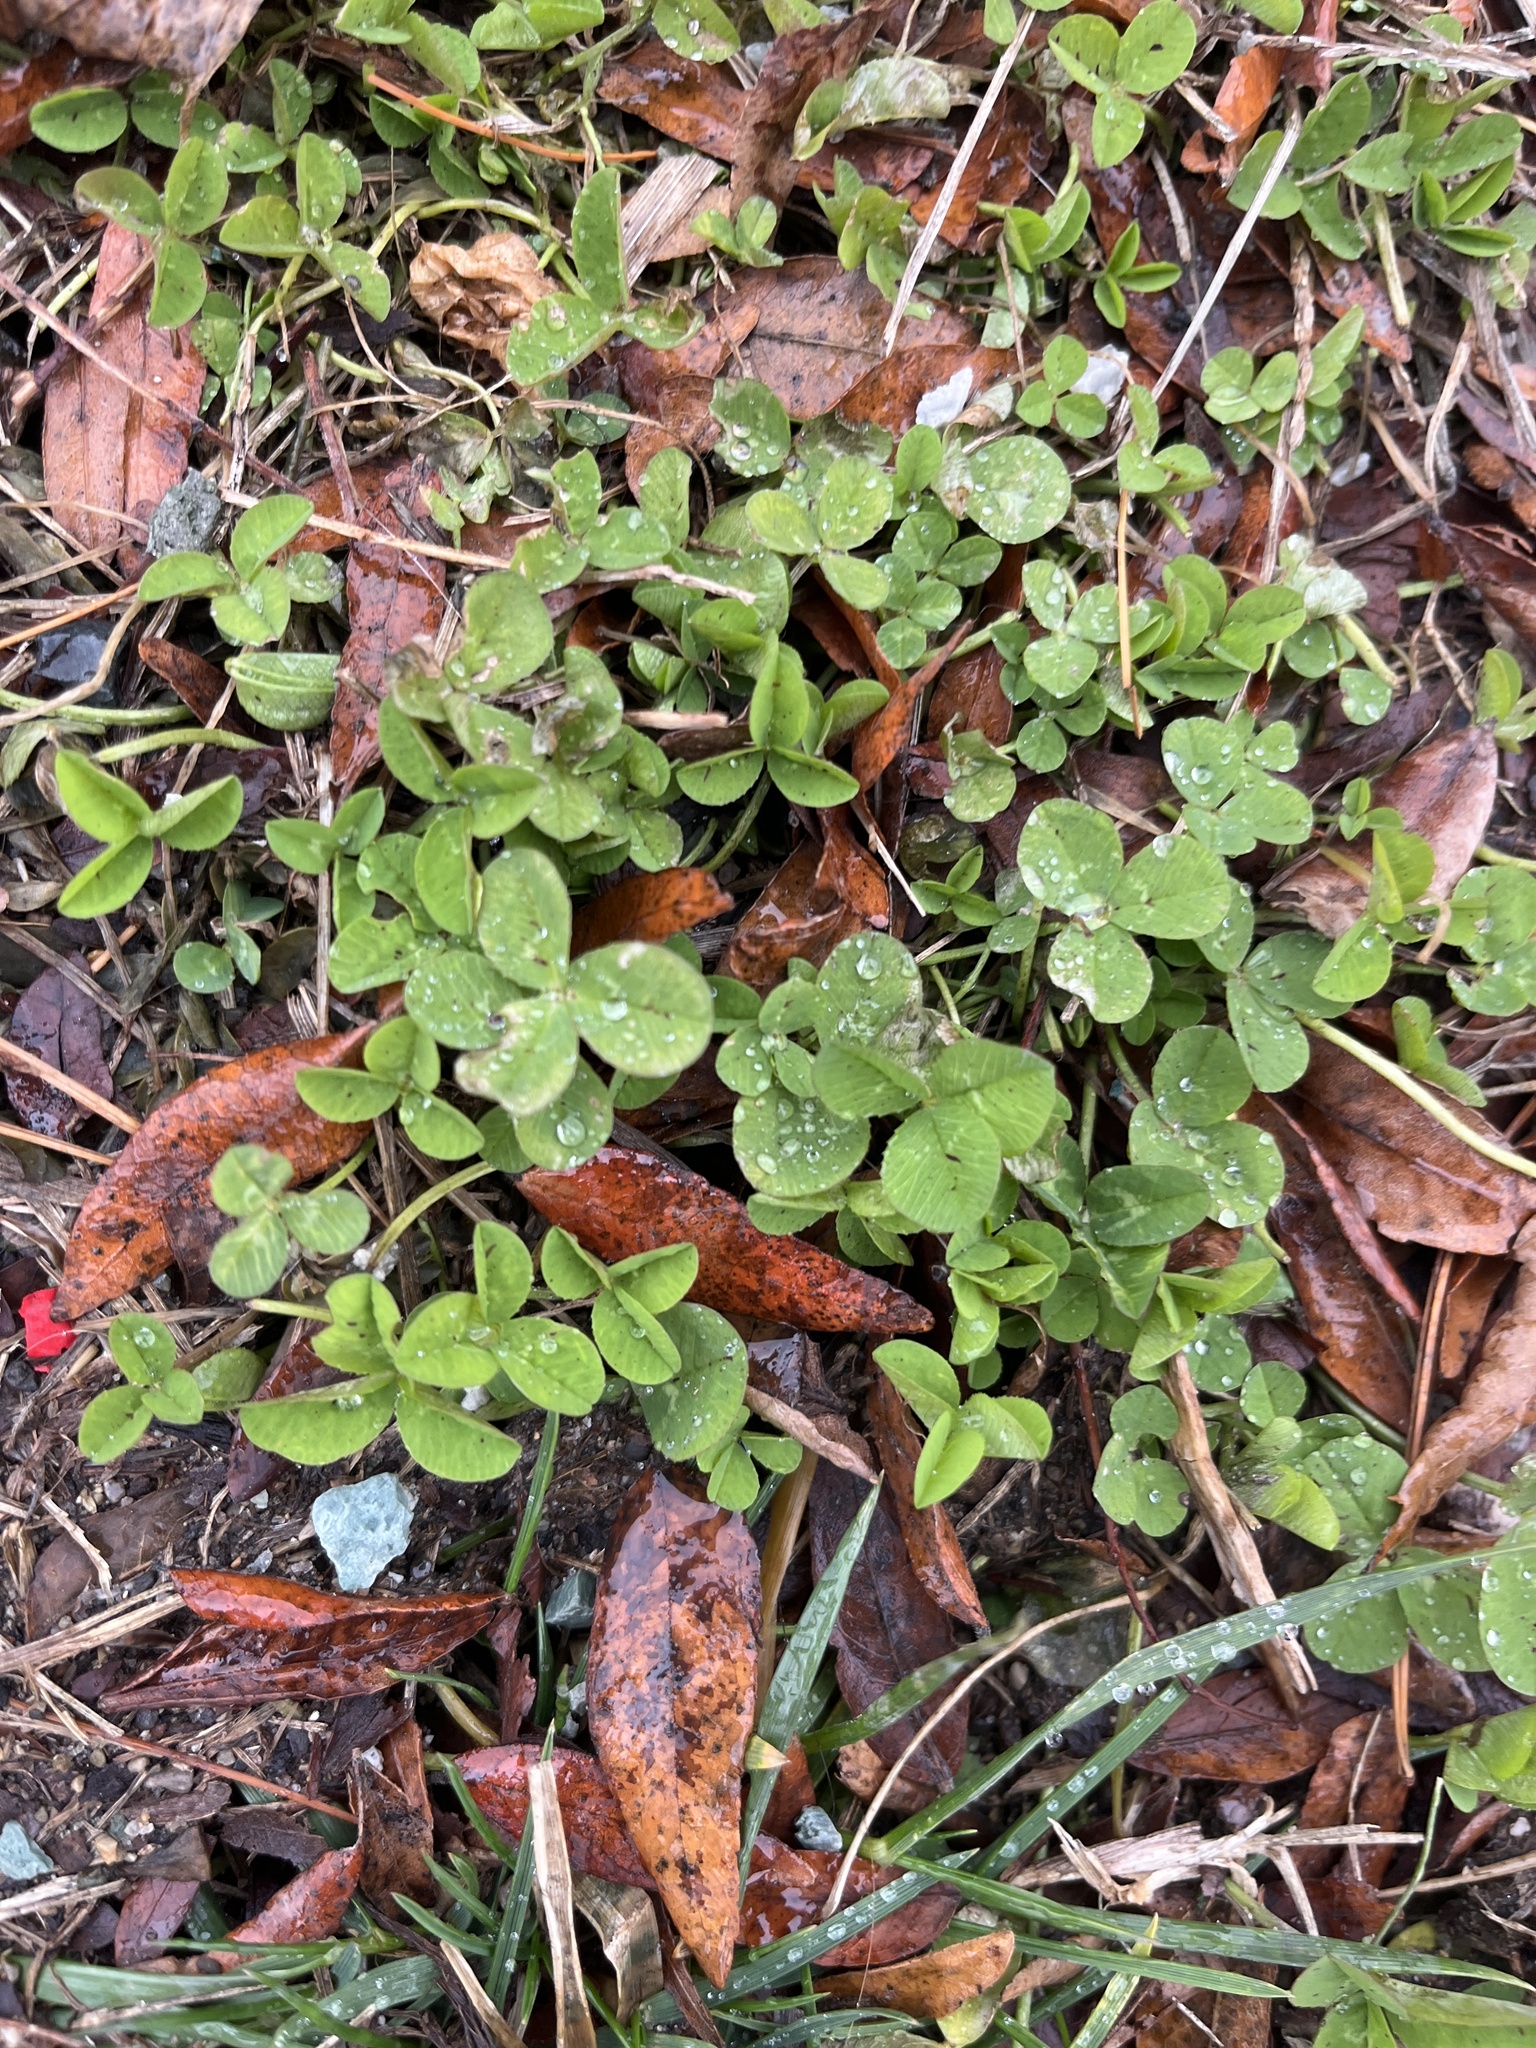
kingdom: Plantae
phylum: Tracheophyta
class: Magnoliopsida
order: Fabales
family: Fabaceae
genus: Trifolium
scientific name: Trifolium repens
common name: White clover
